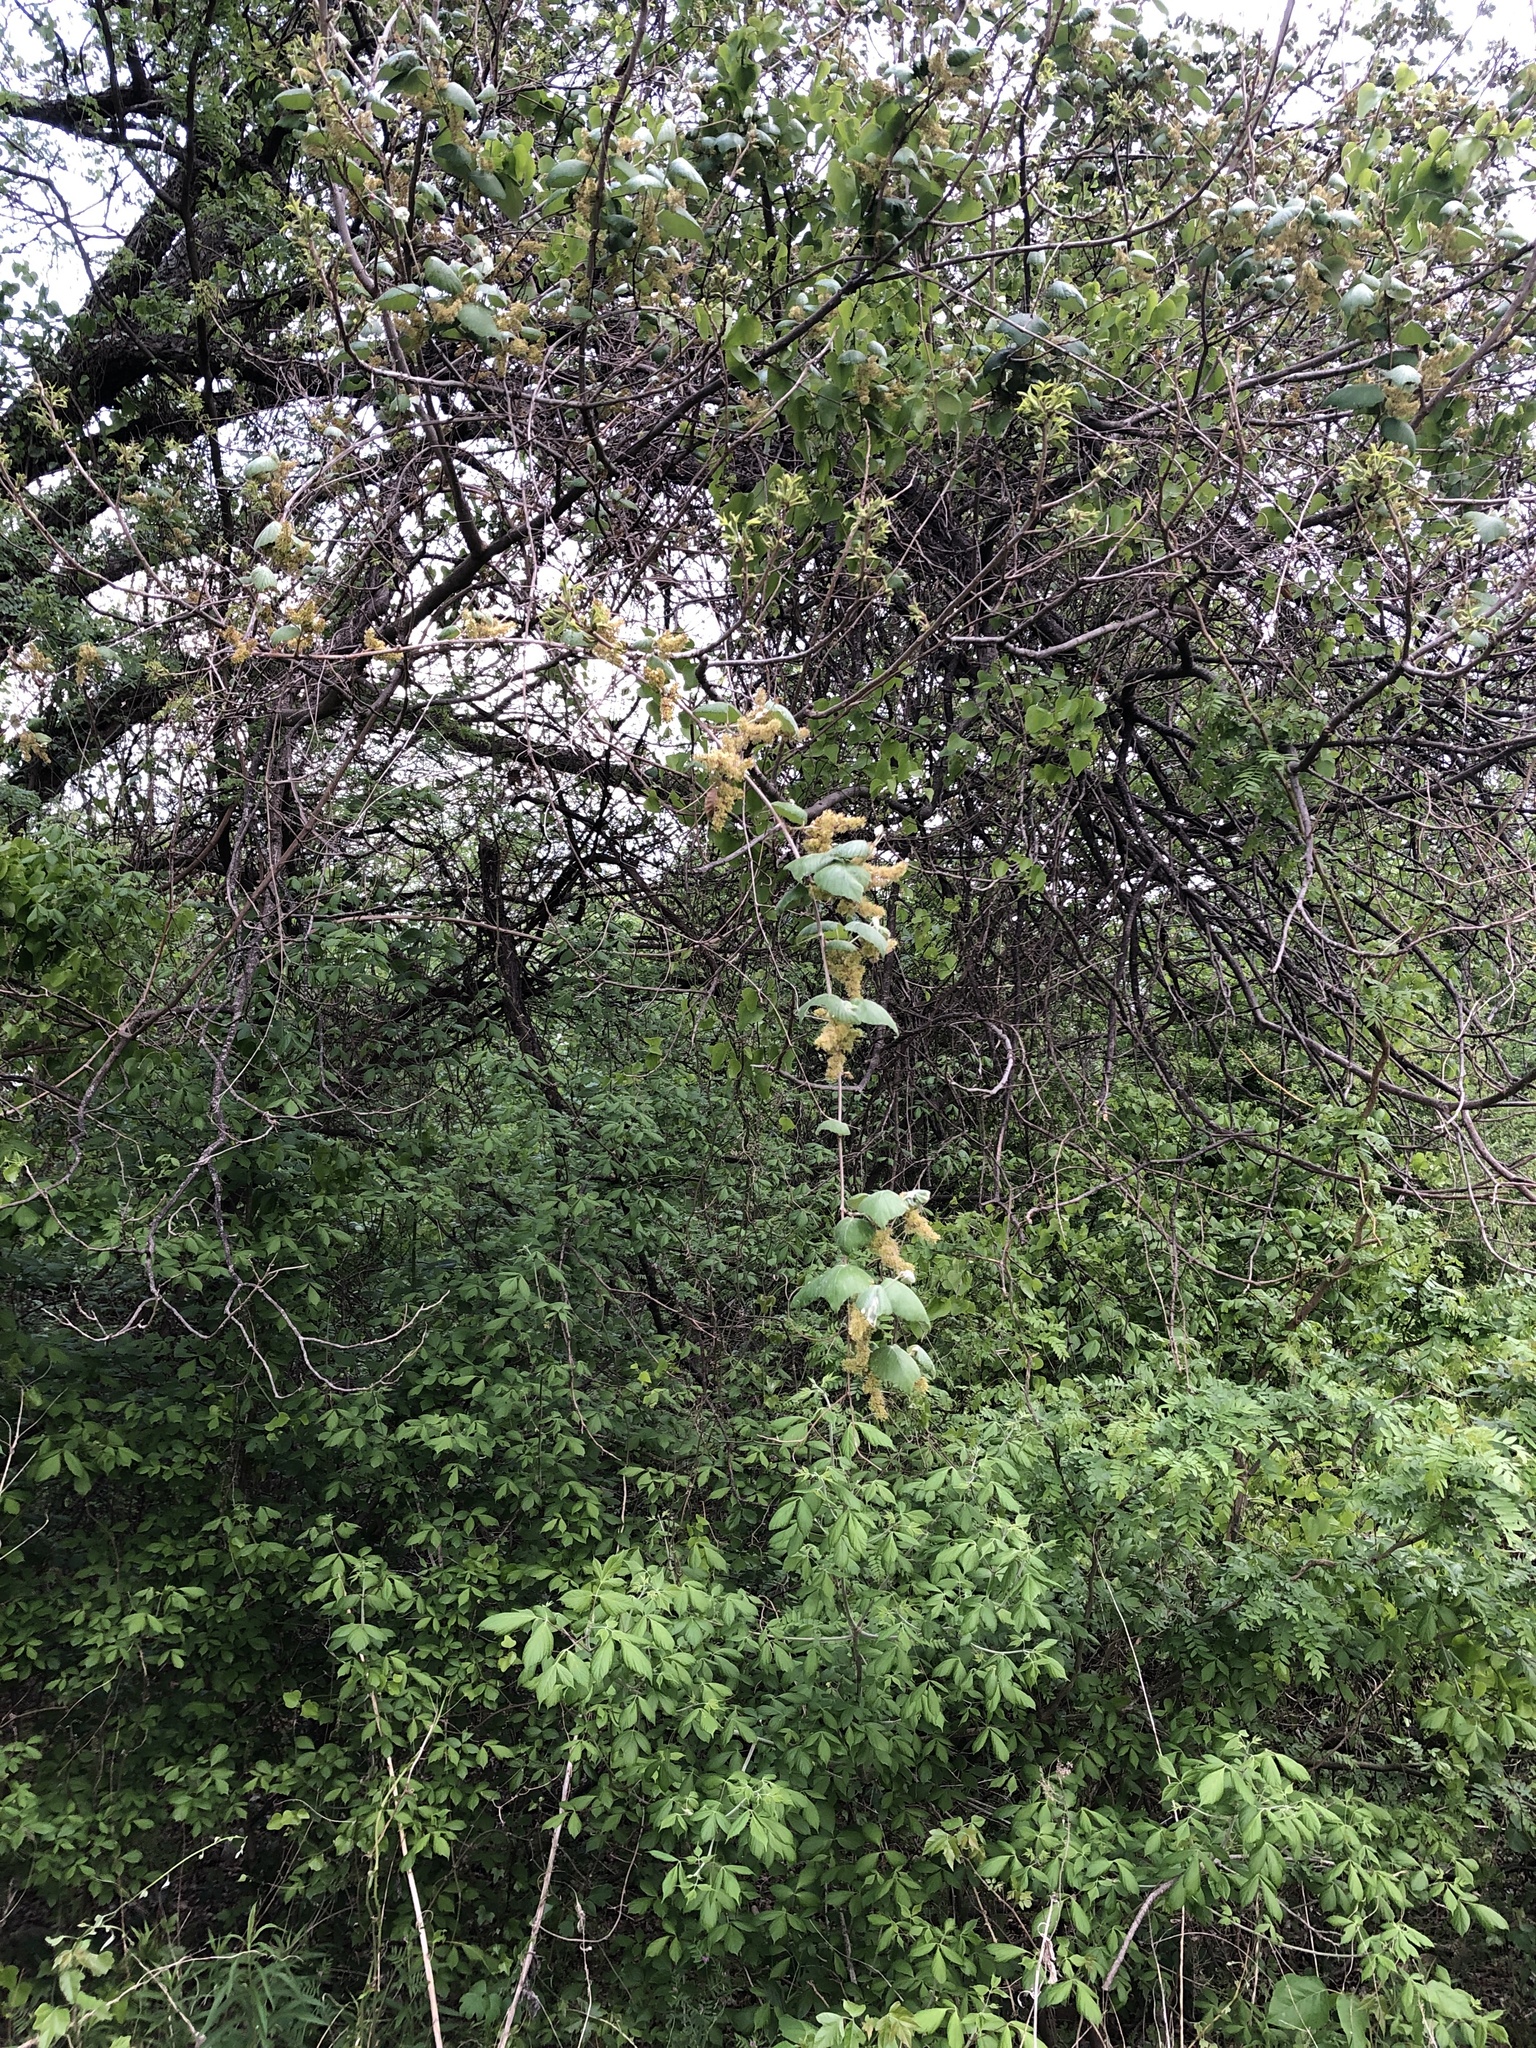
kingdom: Plantae
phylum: Tracheophyta
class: Magnoliopsida
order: Vitales
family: Vitaceae
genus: Vitis
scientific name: Vitis mustangensis
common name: Mustang grape
